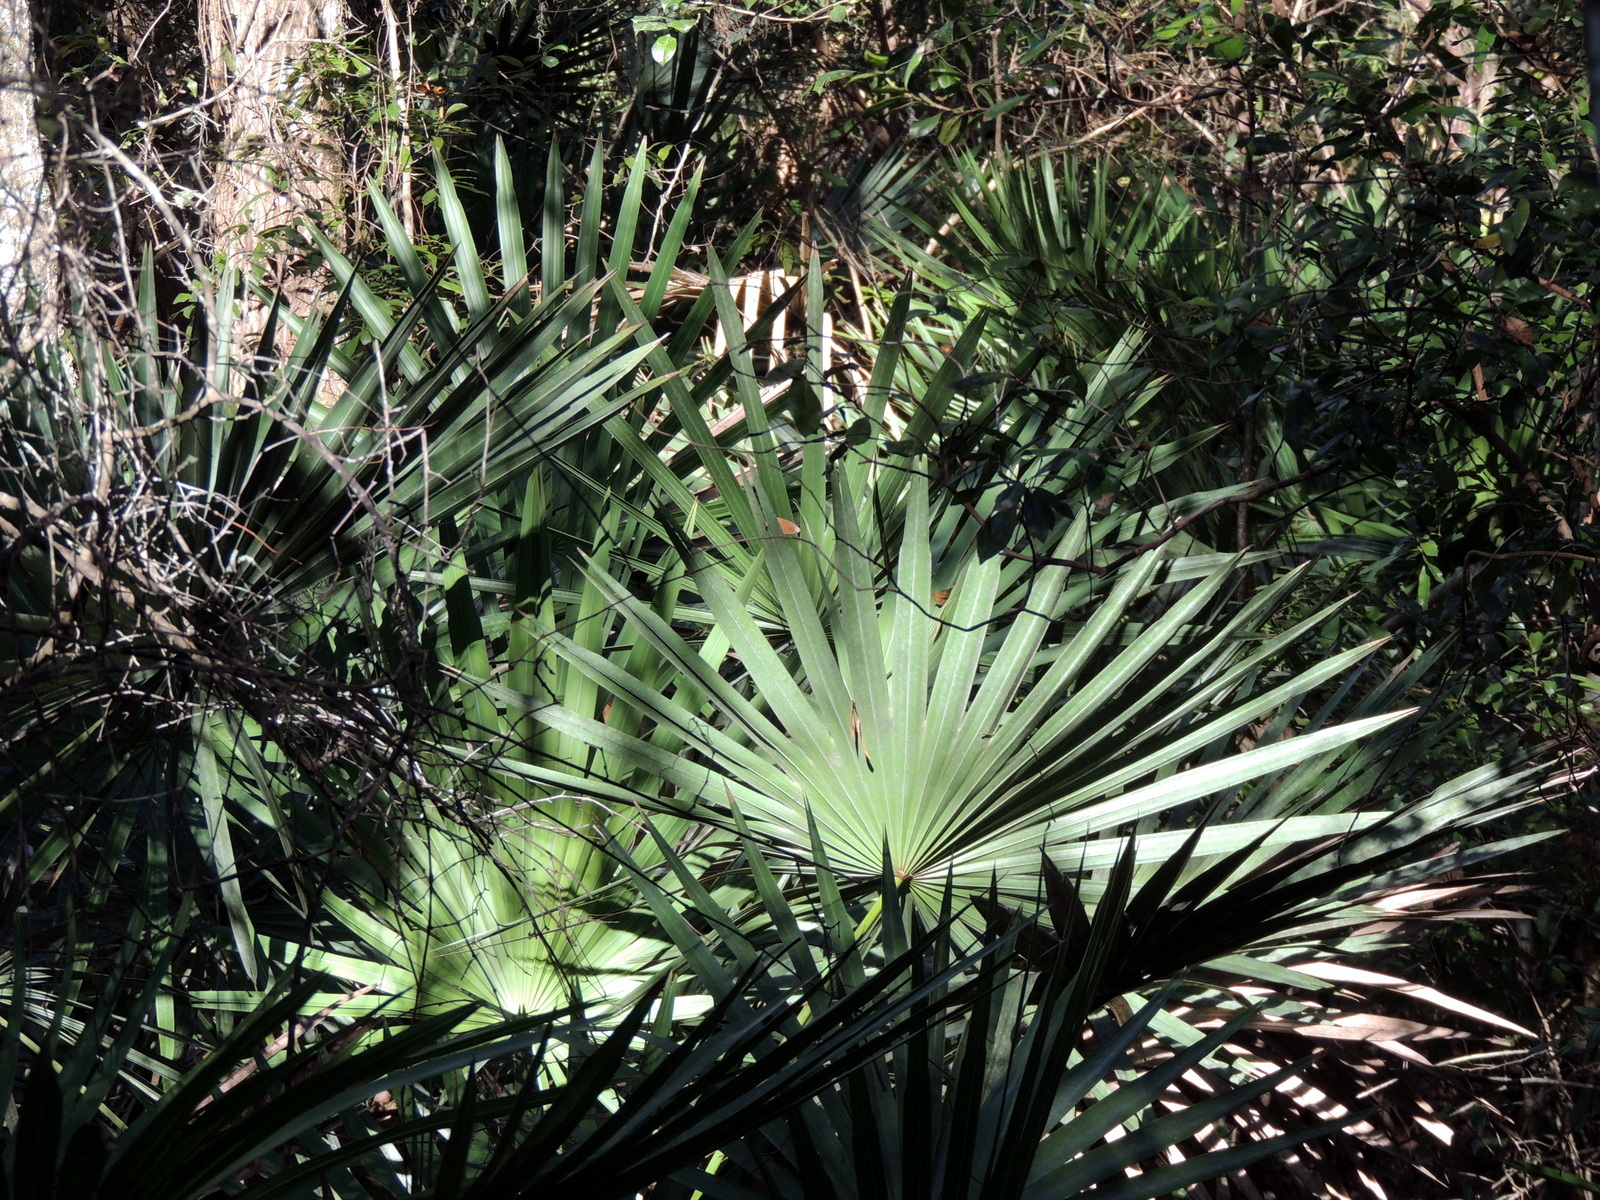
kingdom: Plantae
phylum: Tracheophyta
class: Liliopsida
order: Arecales
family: Arecaceae
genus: Serenoa
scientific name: Serenoa repens
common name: Saw-palmetto
